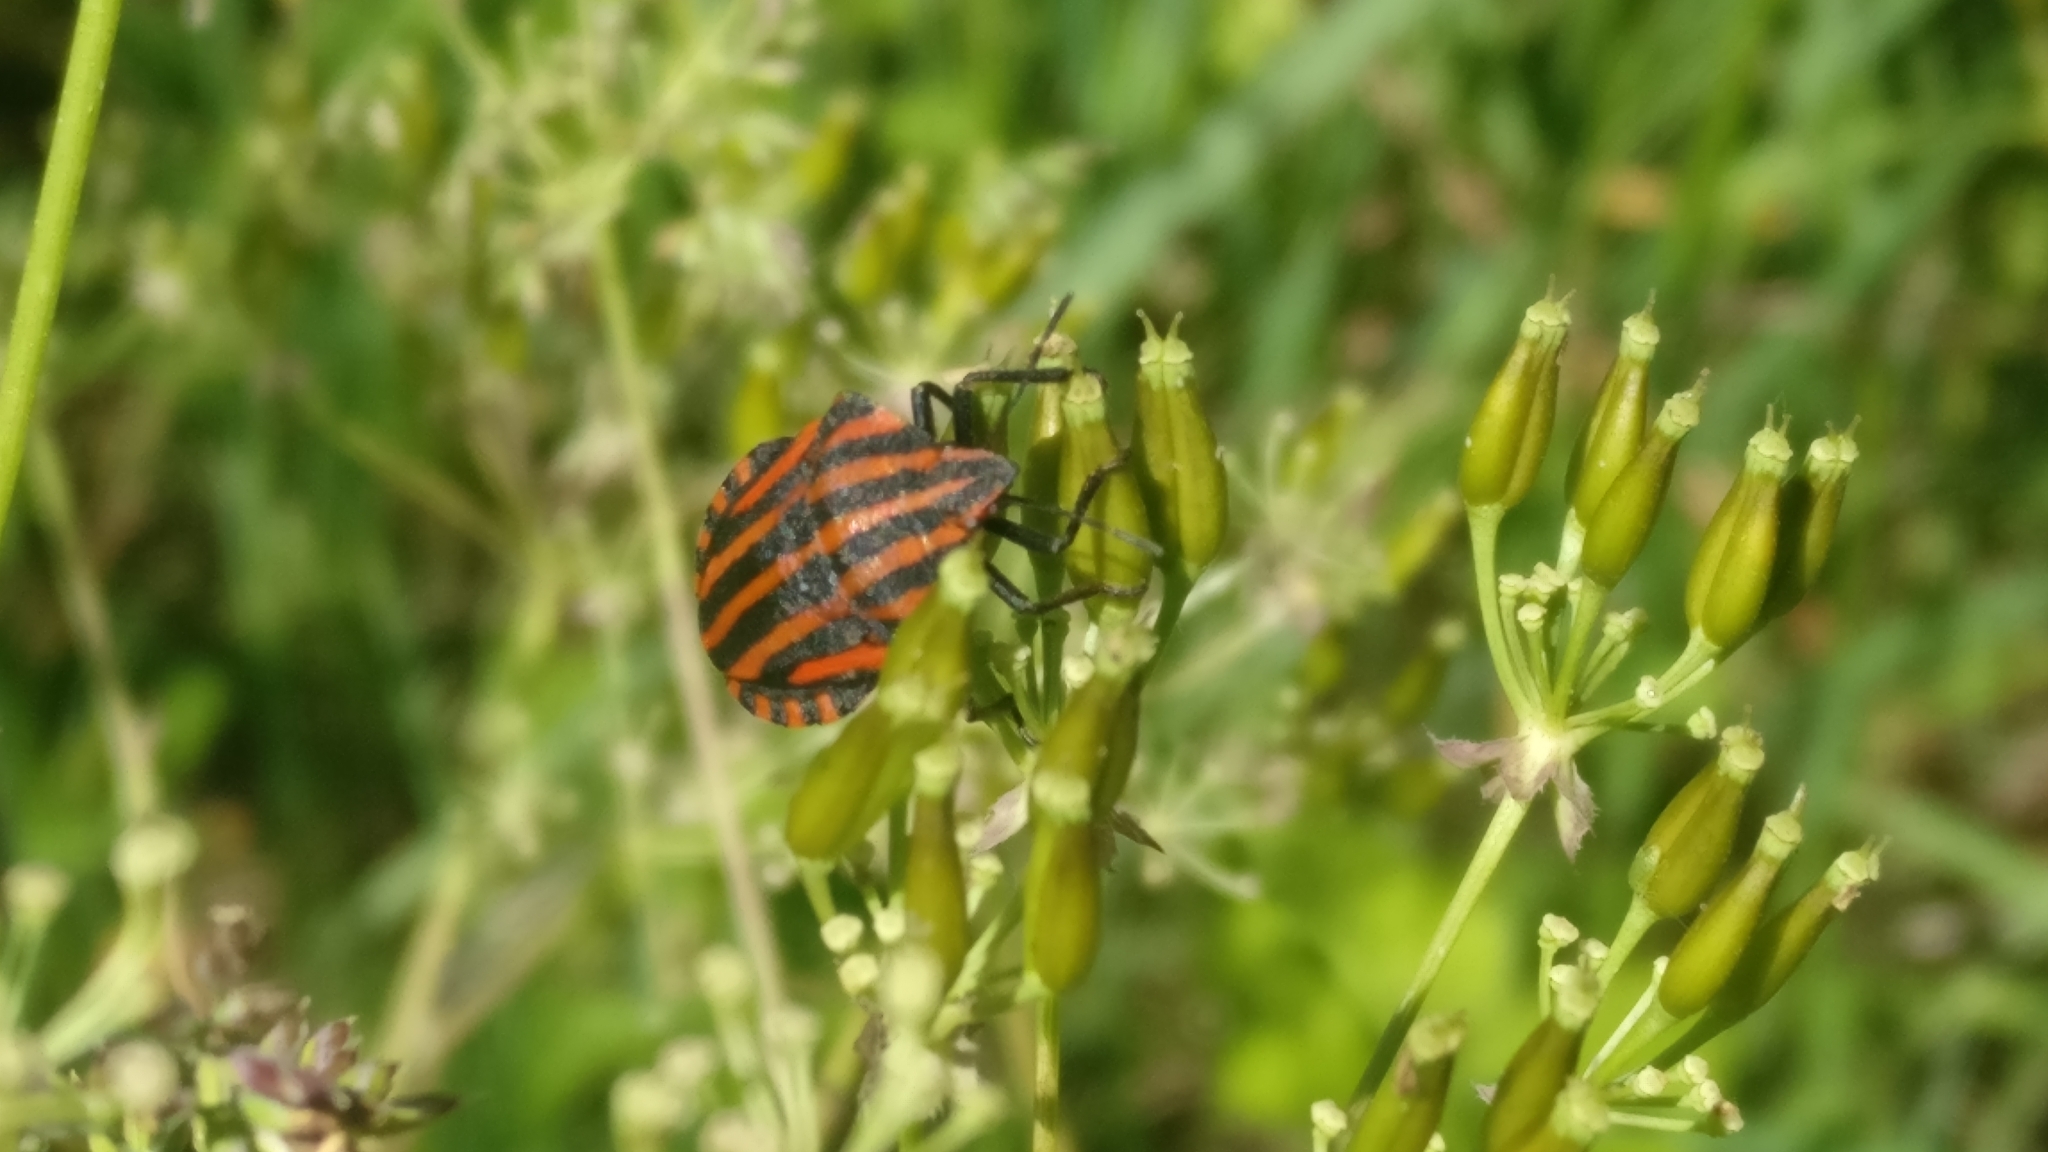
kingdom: Animalia
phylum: Arthropoda
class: Insecta
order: Hemiptera
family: Pentatomidae
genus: Graphosoma
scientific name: Graphosoma italicum
